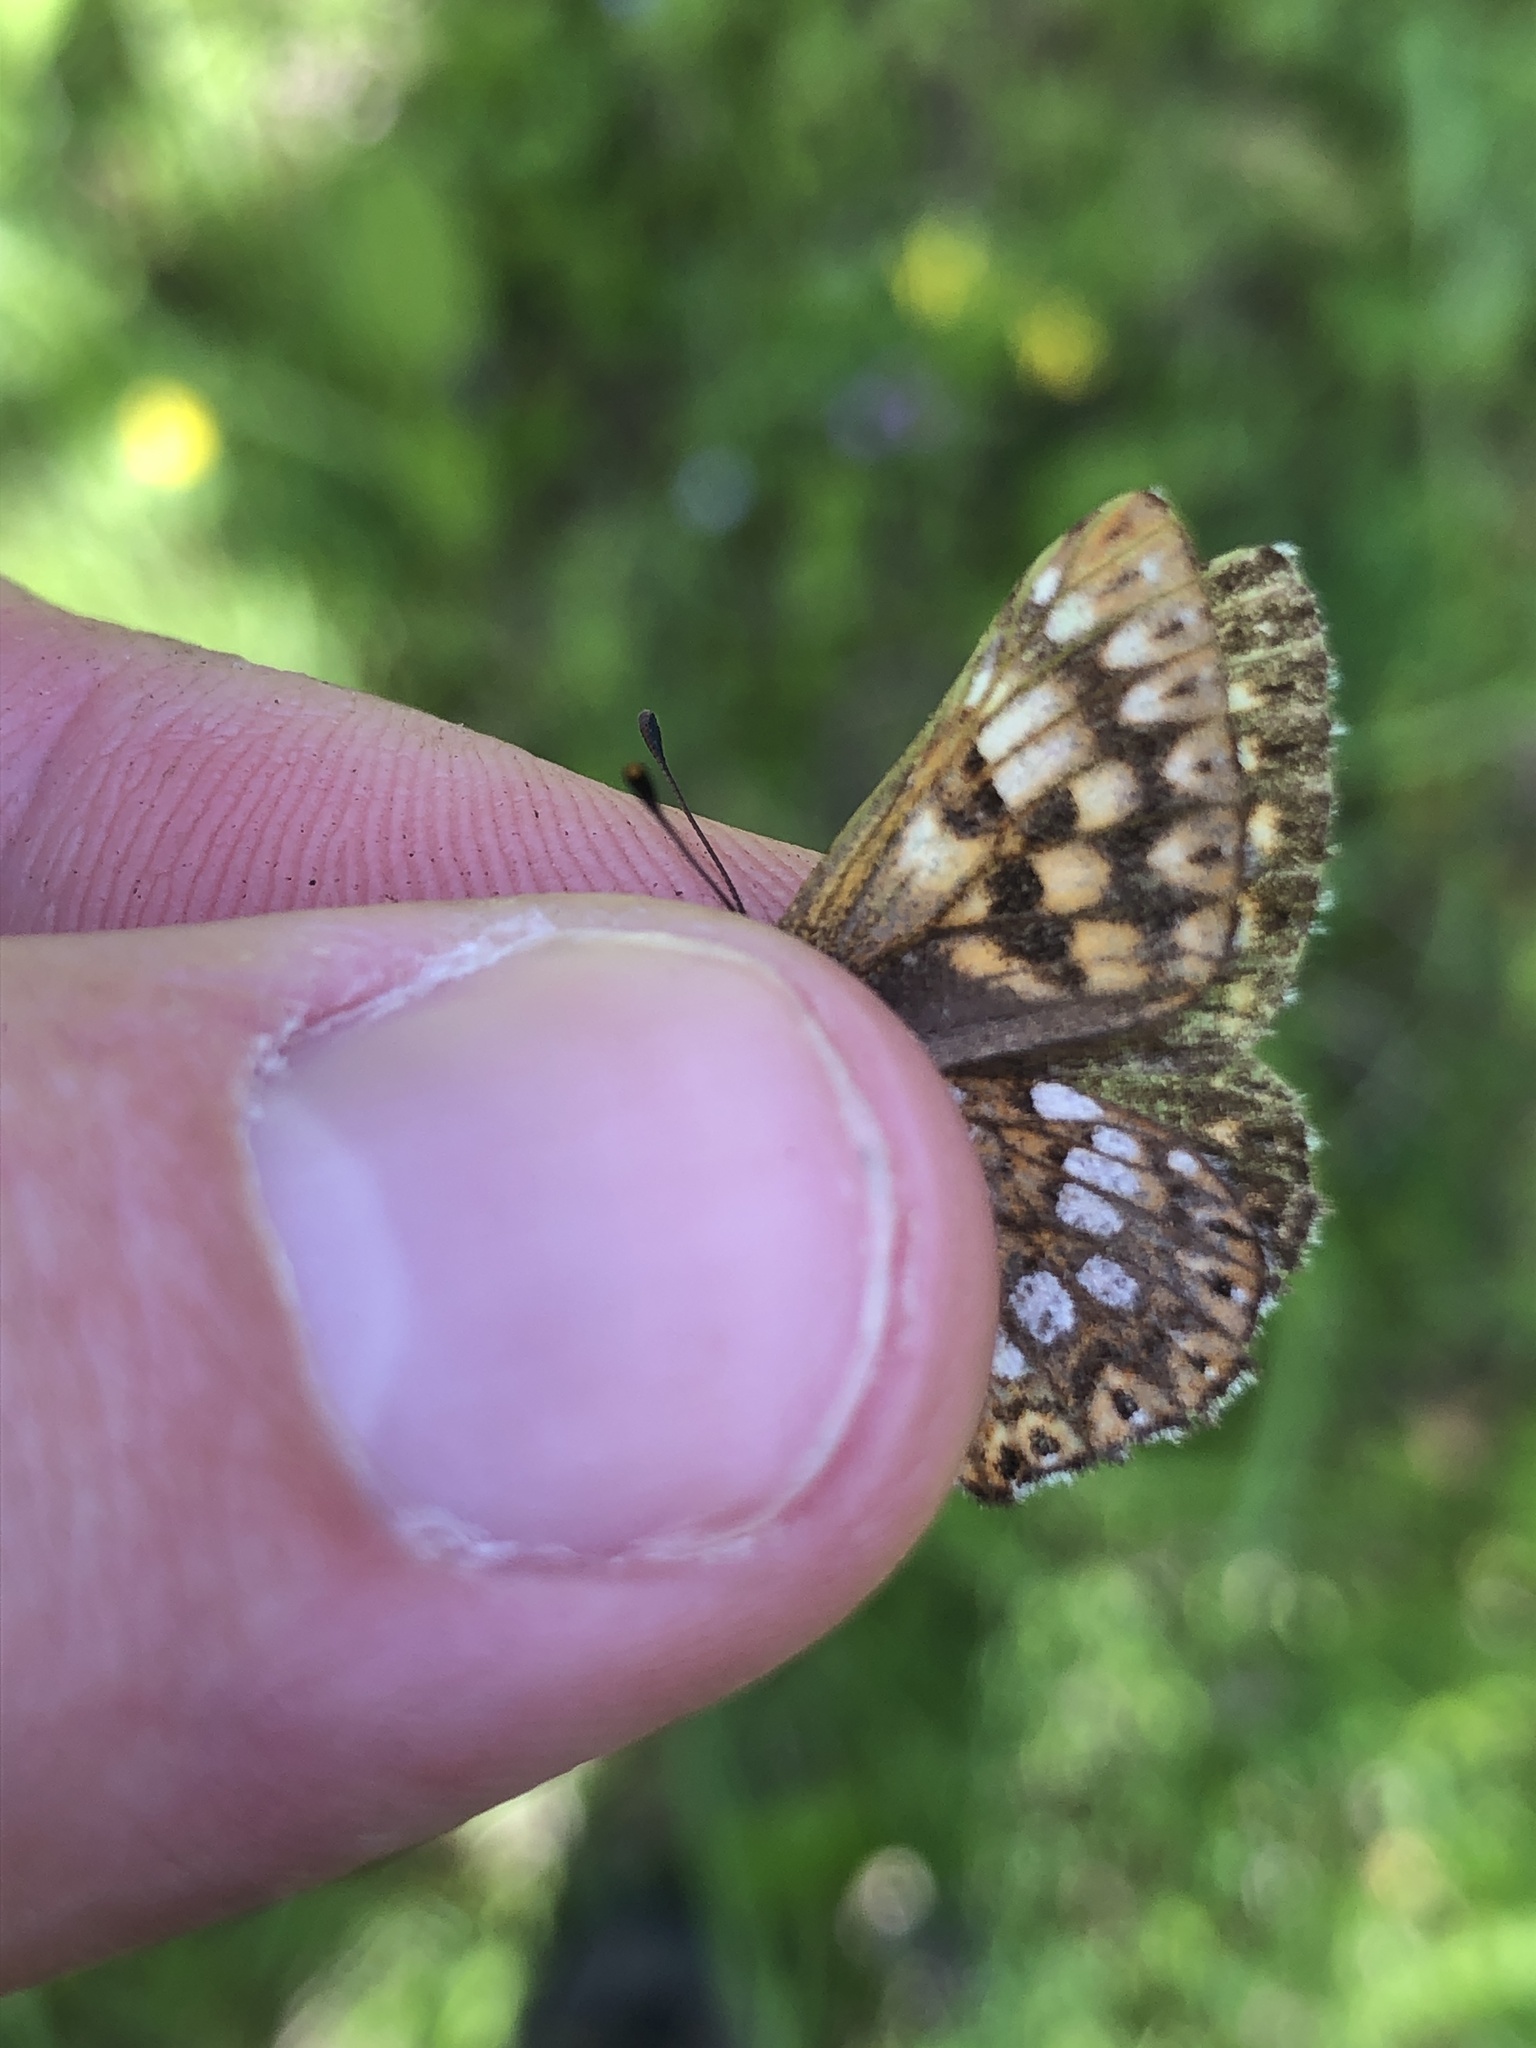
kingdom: Animalia
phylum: Arthropoda
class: Insecta
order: Lepidoptera
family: Riodinidae
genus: Hamearis
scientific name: Hamearis lucina
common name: Duke of burgundy fritillary
